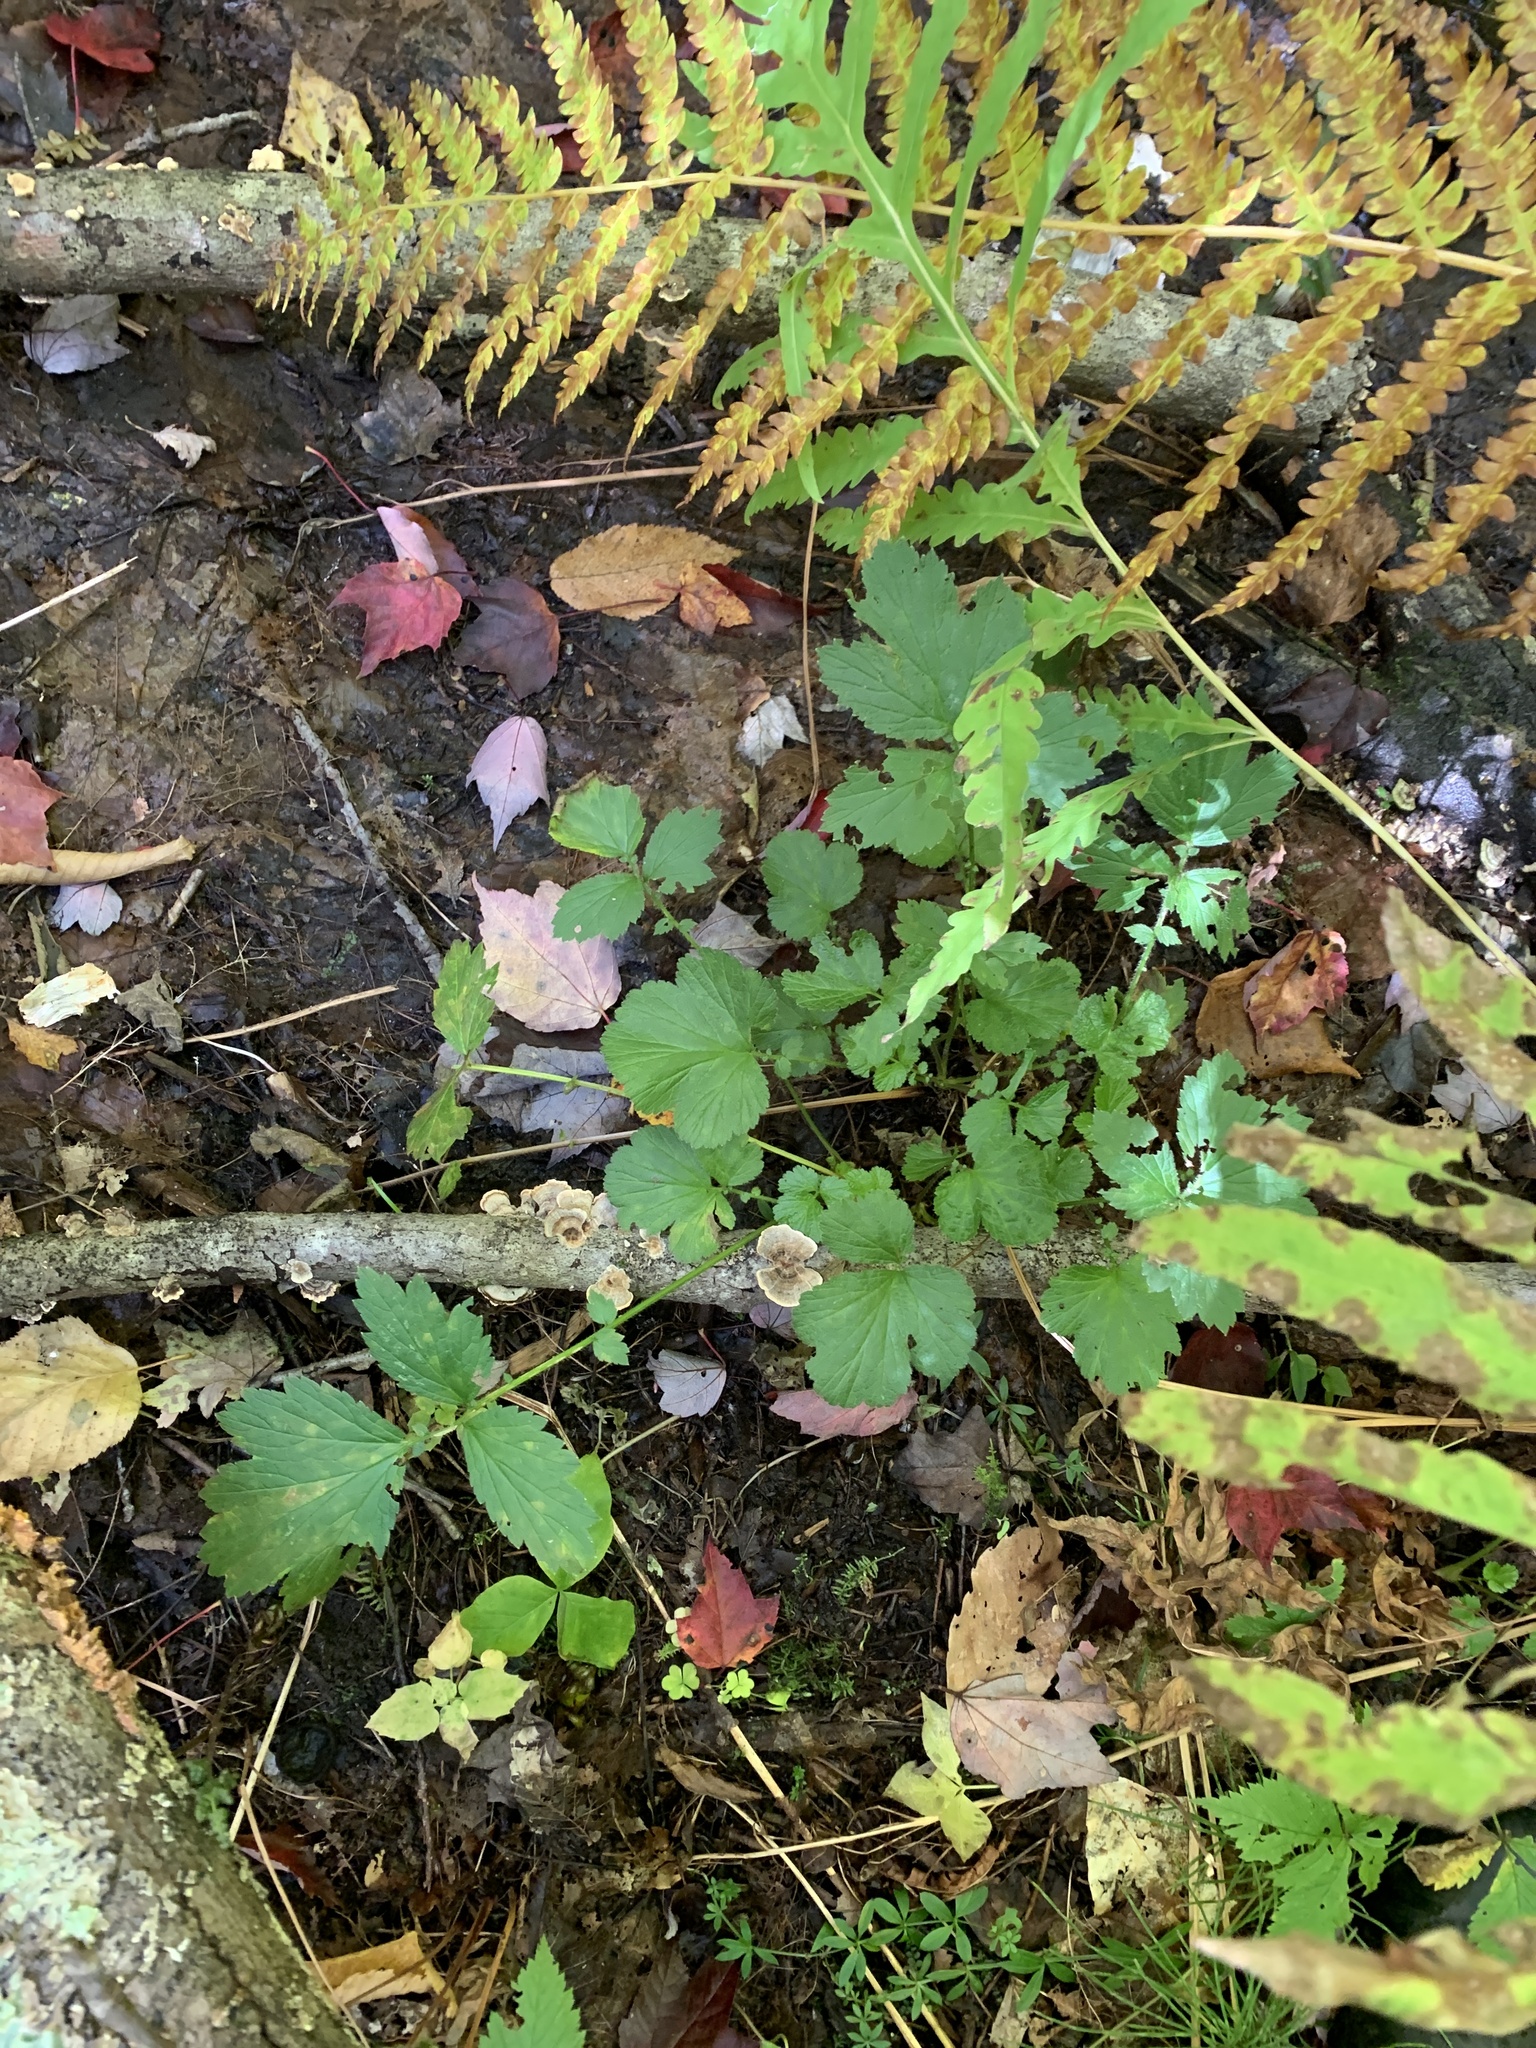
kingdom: Plantae
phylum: Tracheophyta
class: Magnoliopsida
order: Rosales
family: Rosaceae
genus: Geum
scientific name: Geum rivale
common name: Water avens
